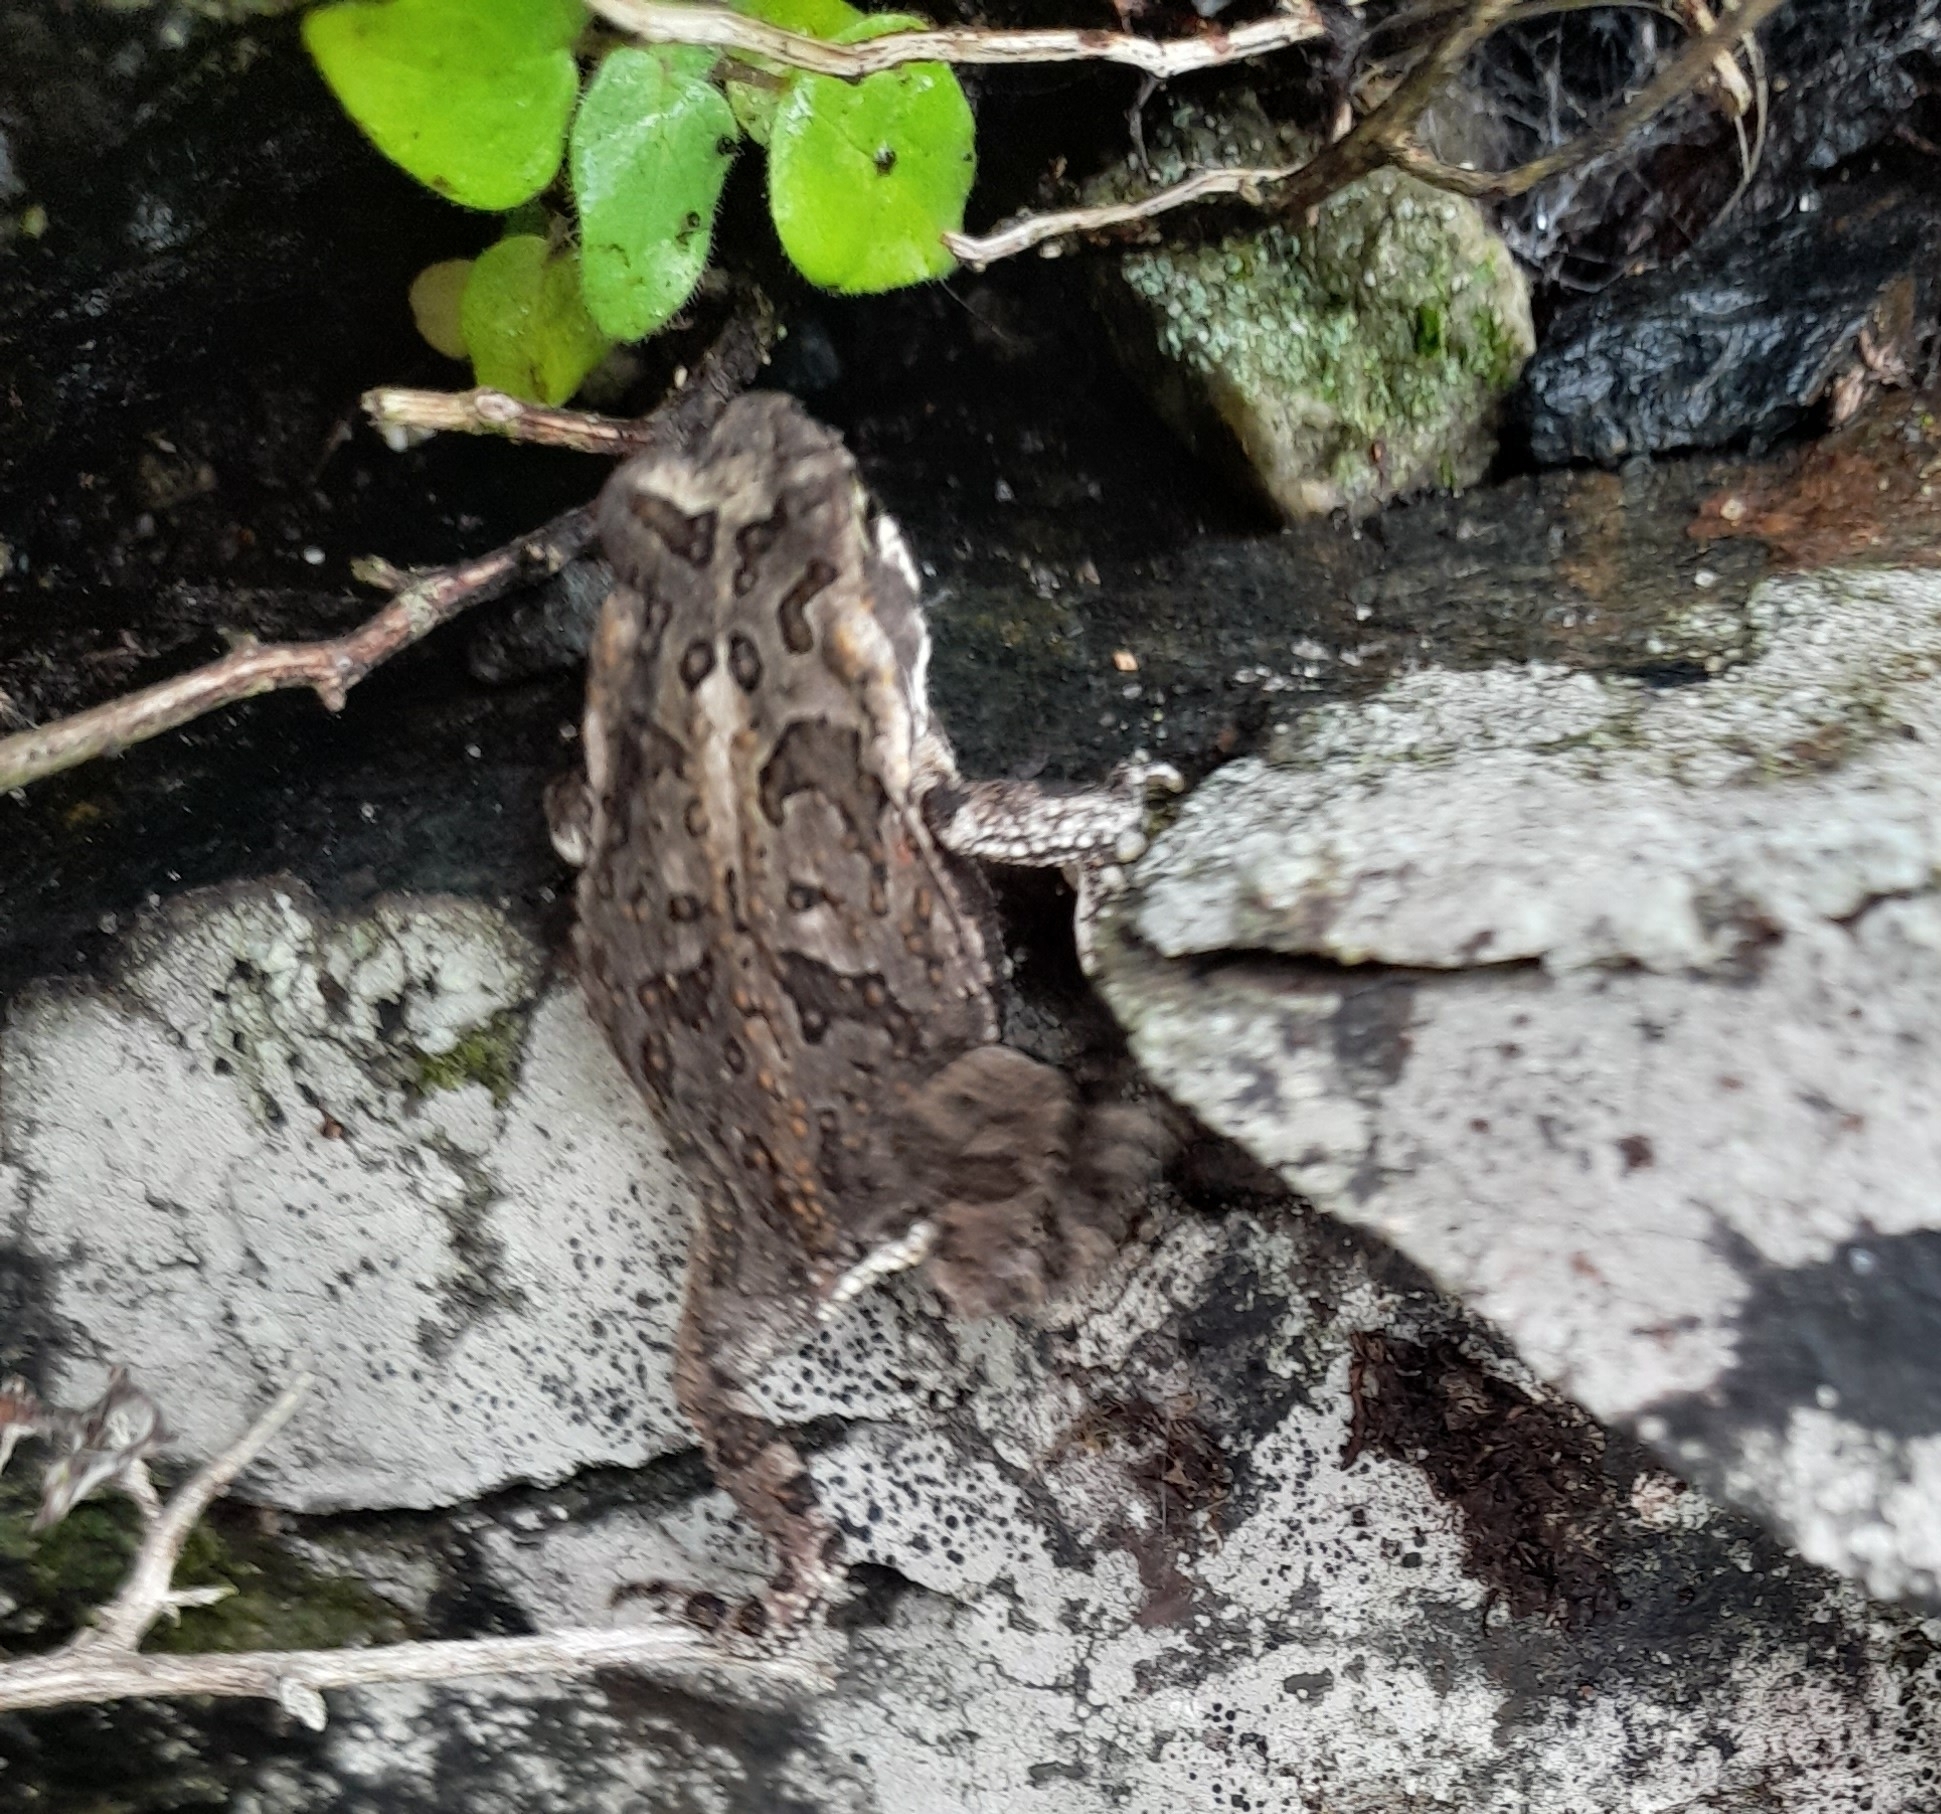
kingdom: Animalia
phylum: Chordata
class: Amphibia
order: Anura
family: Bufonidae
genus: Rhinella
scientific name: Rhinella arenarum
